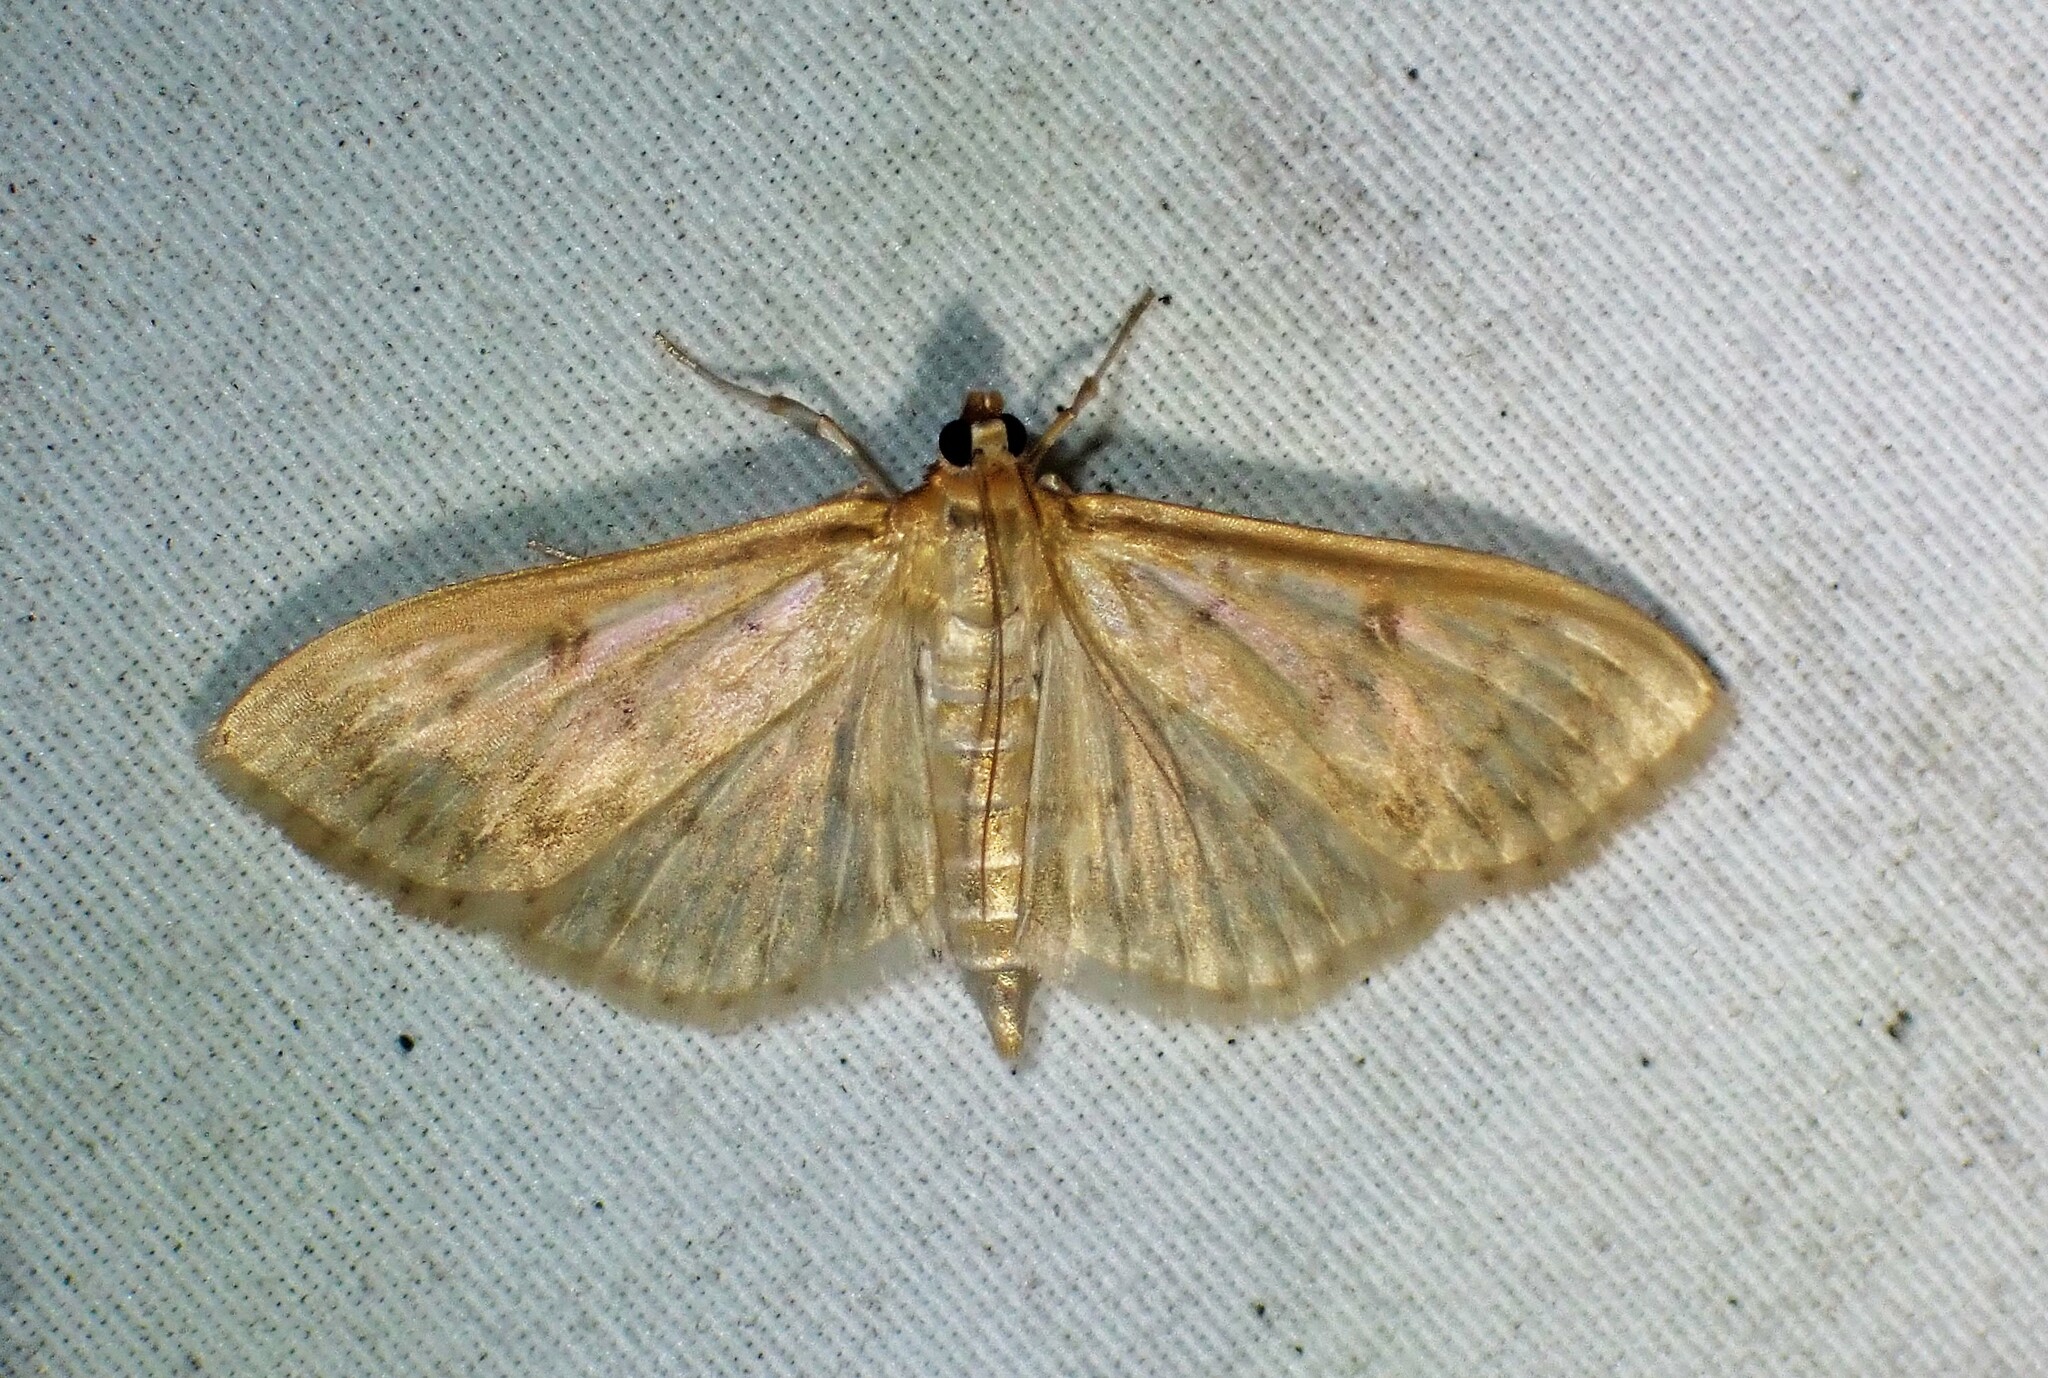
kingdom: Animalia
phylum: Arthropoda
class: Insecta
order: Lepidoptera
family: Crambidae
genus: Herpetogramma
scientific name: Herpetogramma aquilonalis
